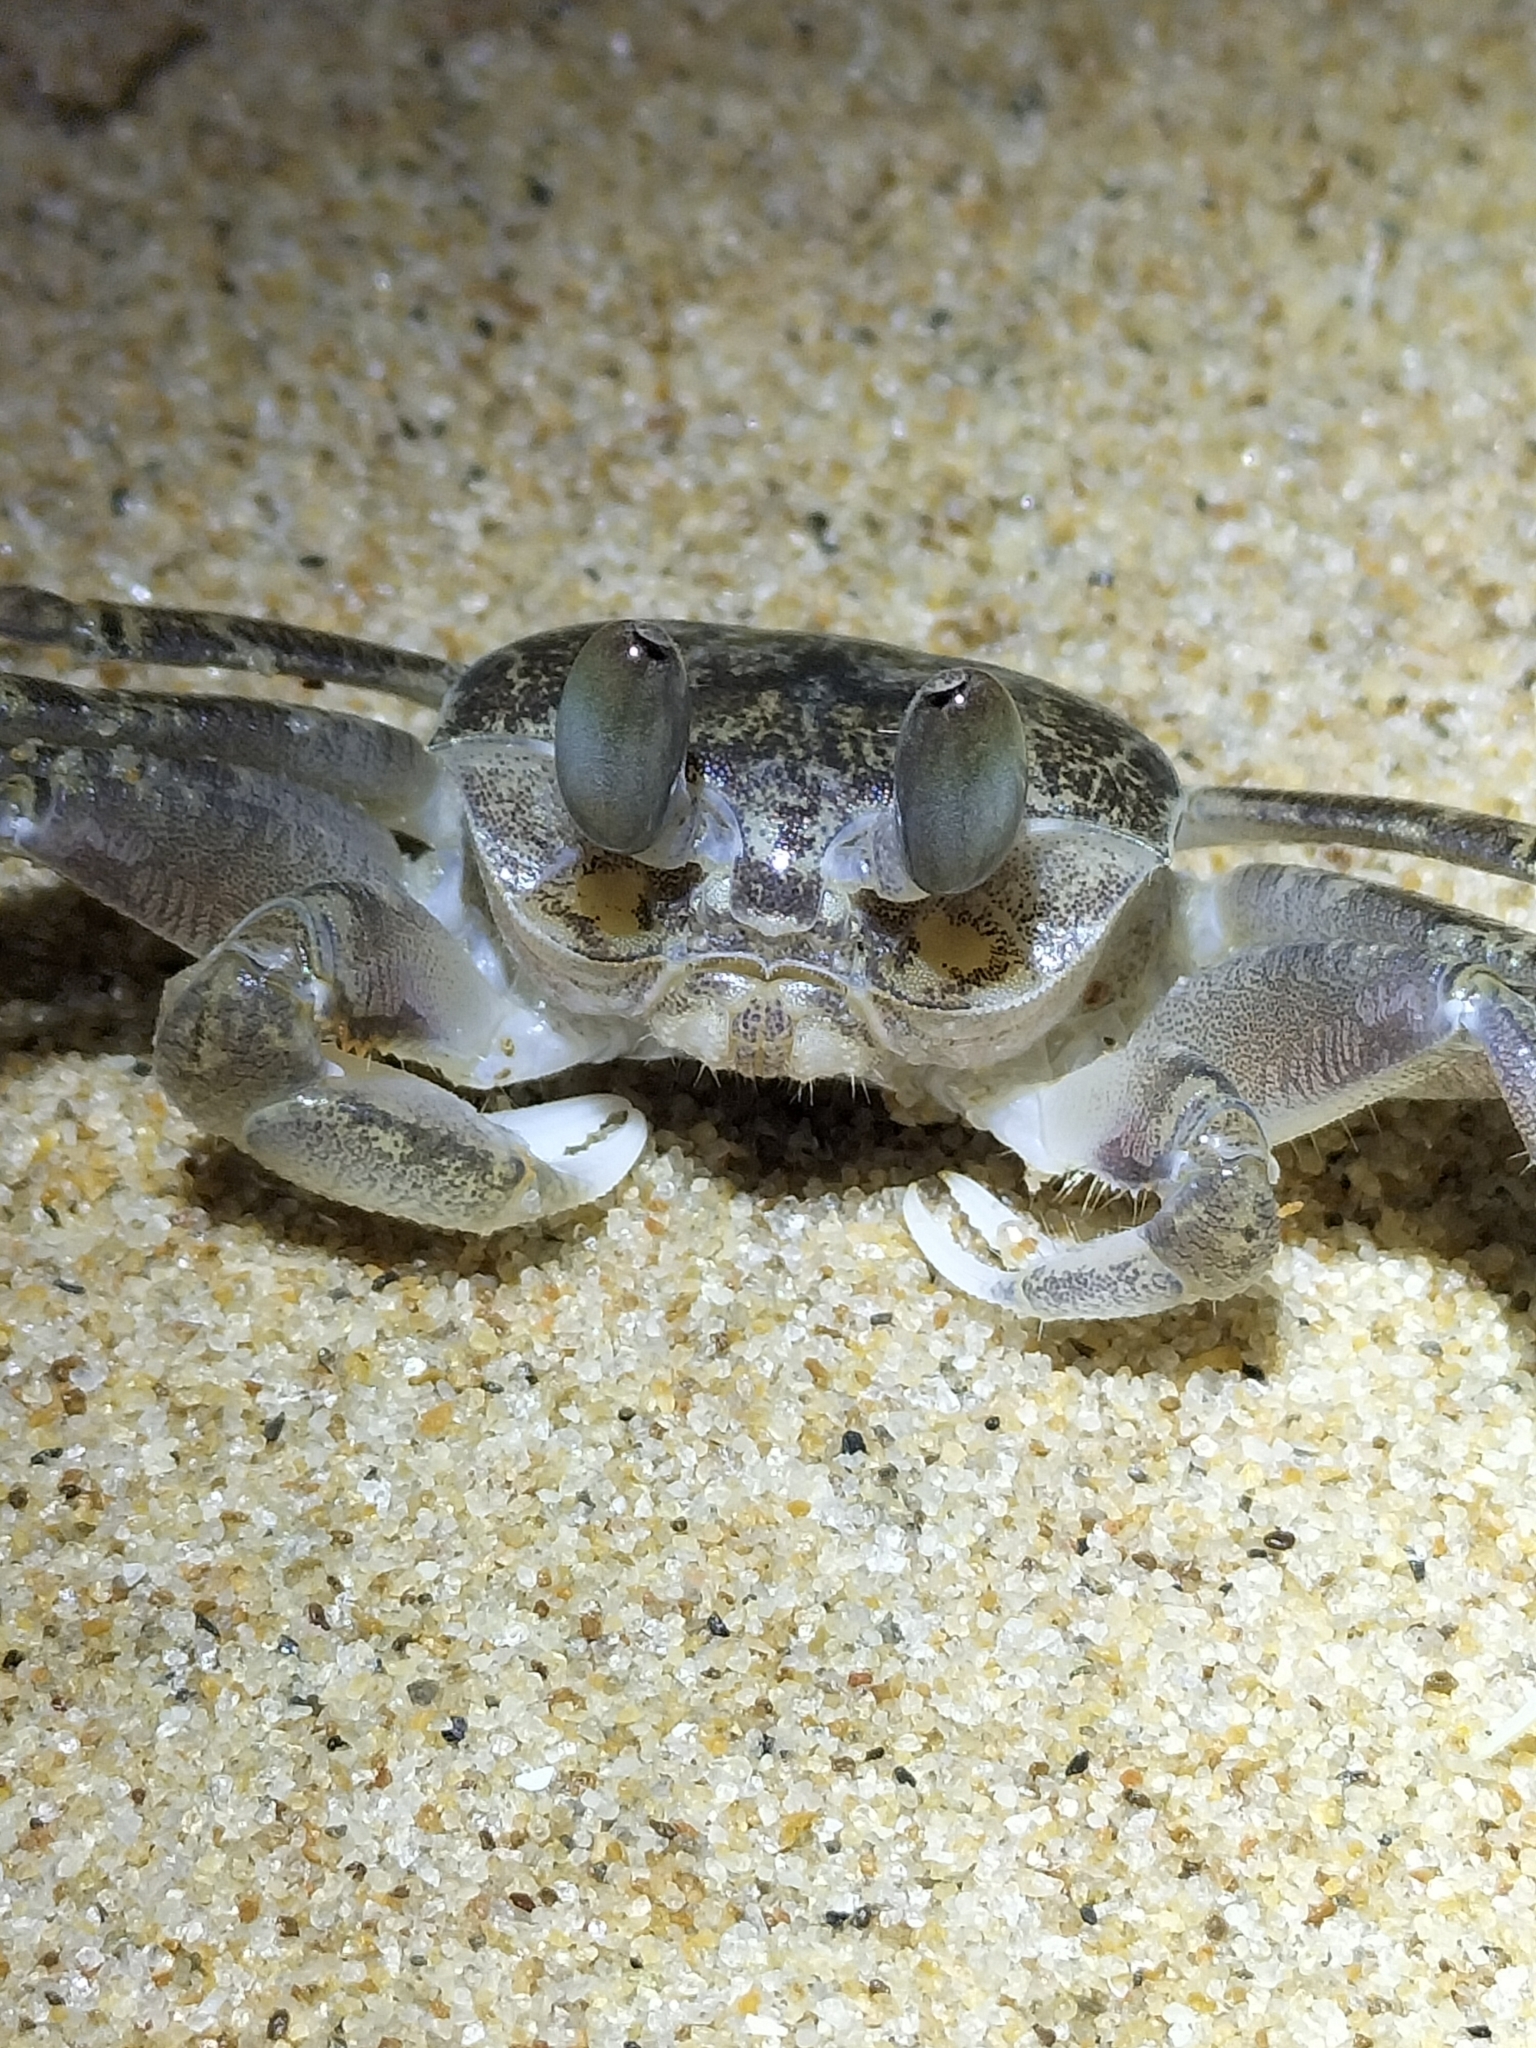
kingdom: Animalia
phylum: Arthropoda
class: Malacostraca
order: Decapoda
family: Ocypodidae
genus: Ocypode
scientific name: Ocypode cordimana
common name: Smooth-eyed ghost crab
